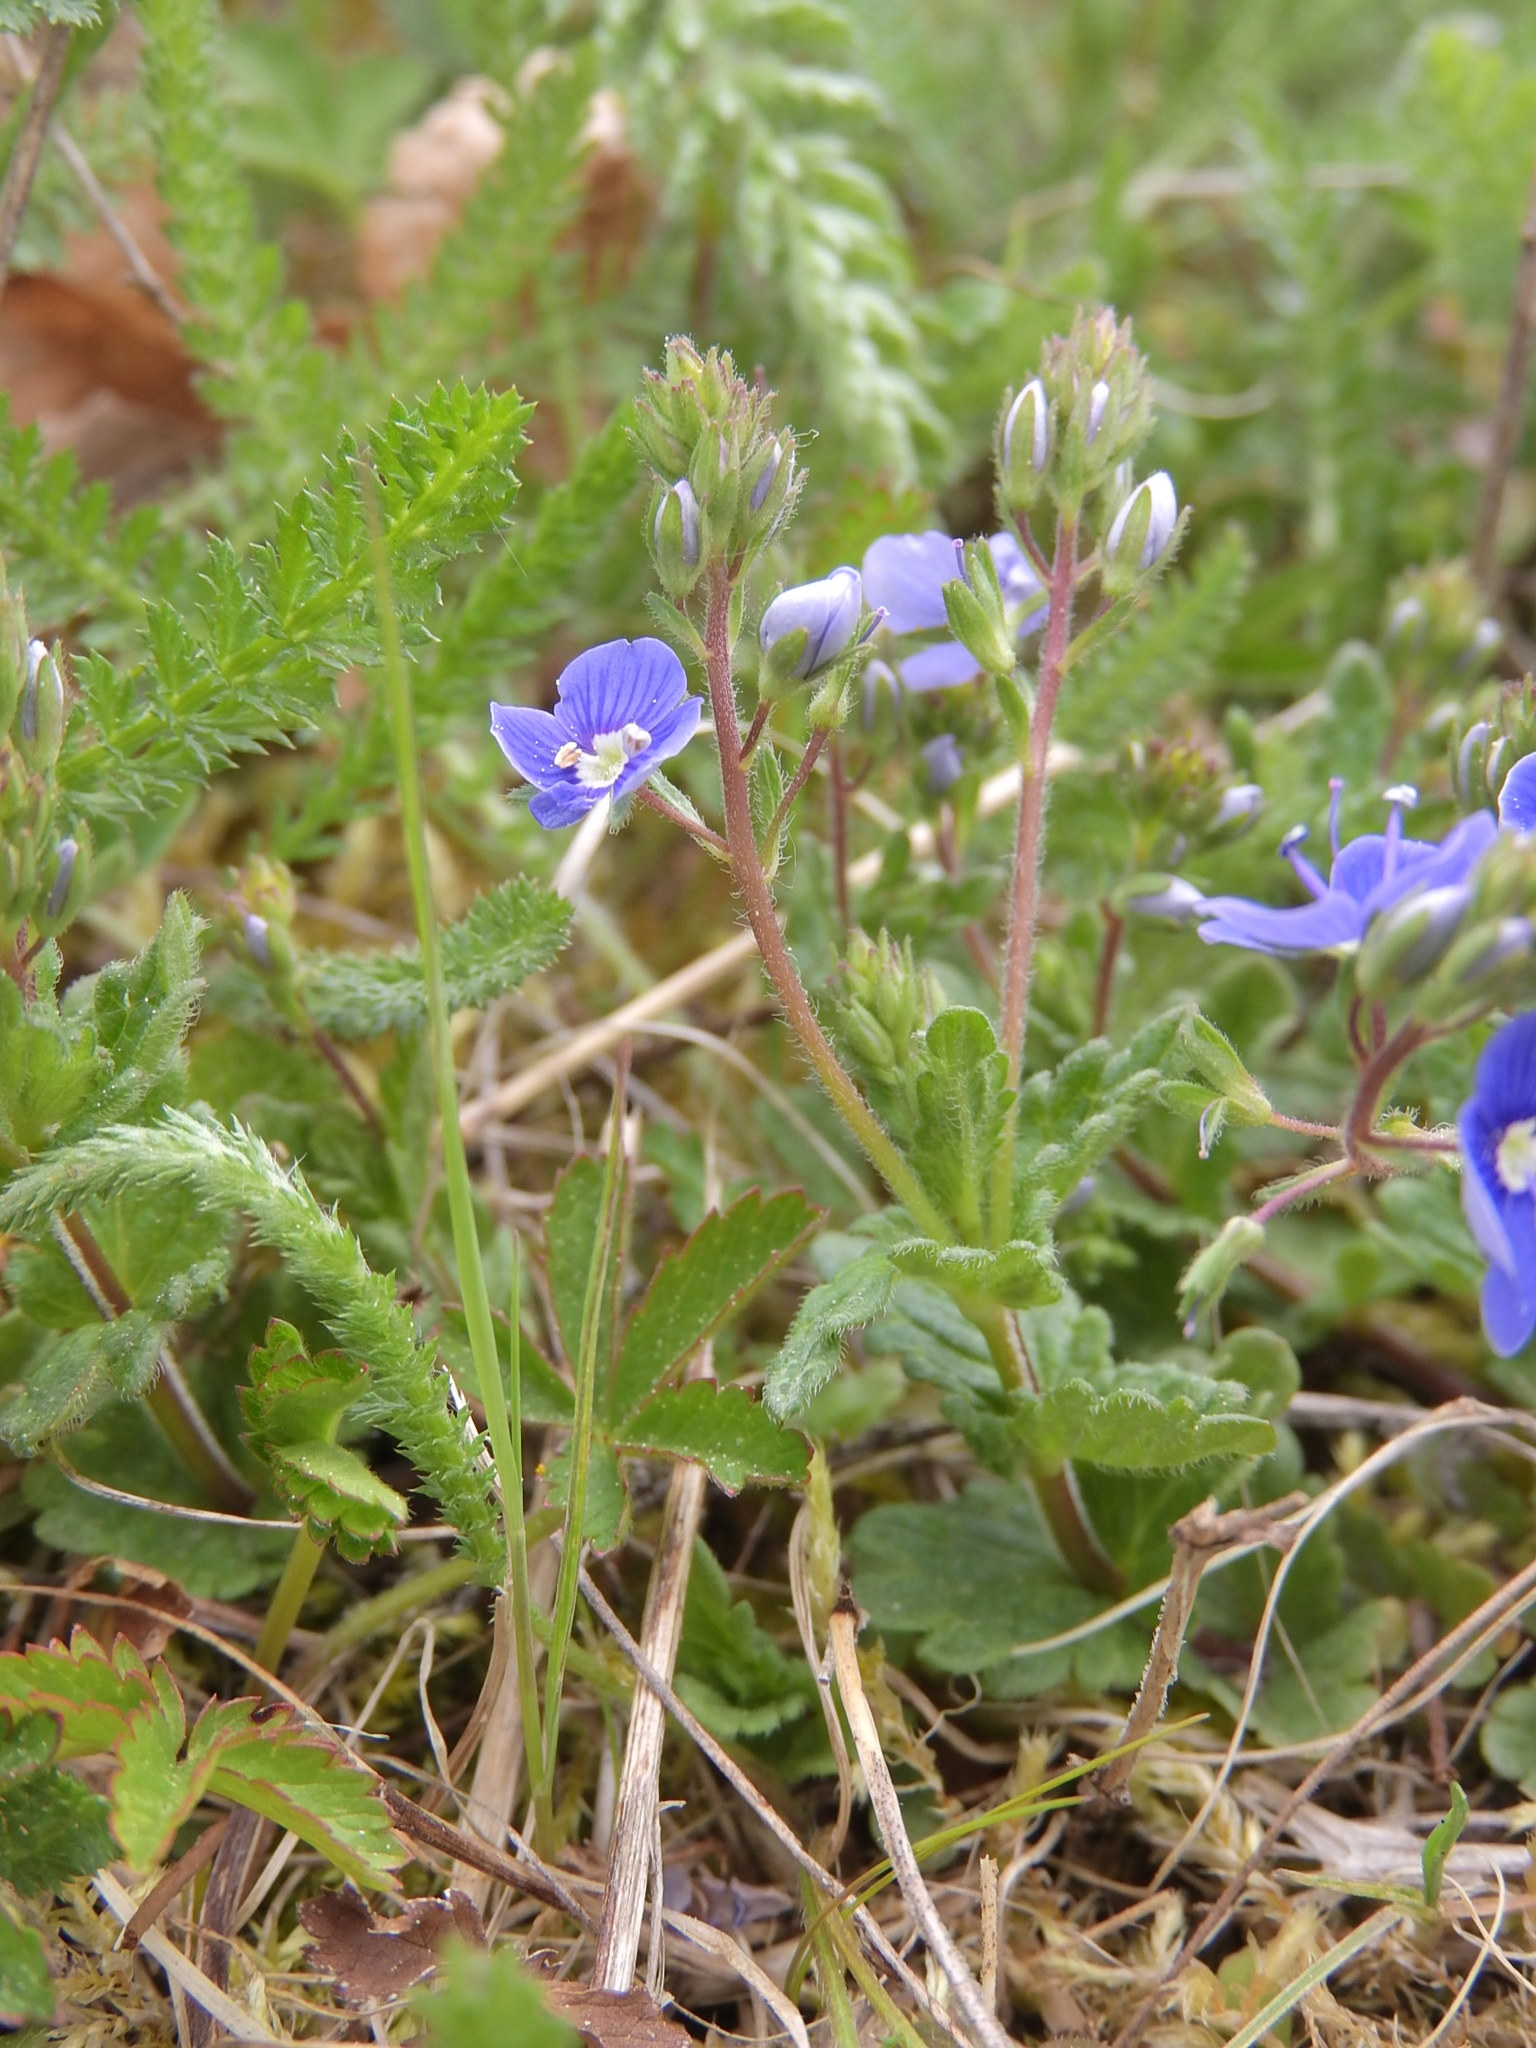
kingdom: Plantae
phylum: Tracheophyta
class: Magnoliopsida
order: Lamiales
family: Plantaginaceae
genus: Veronica
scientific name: Veronica chamaedrys
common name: Germander speedwell
